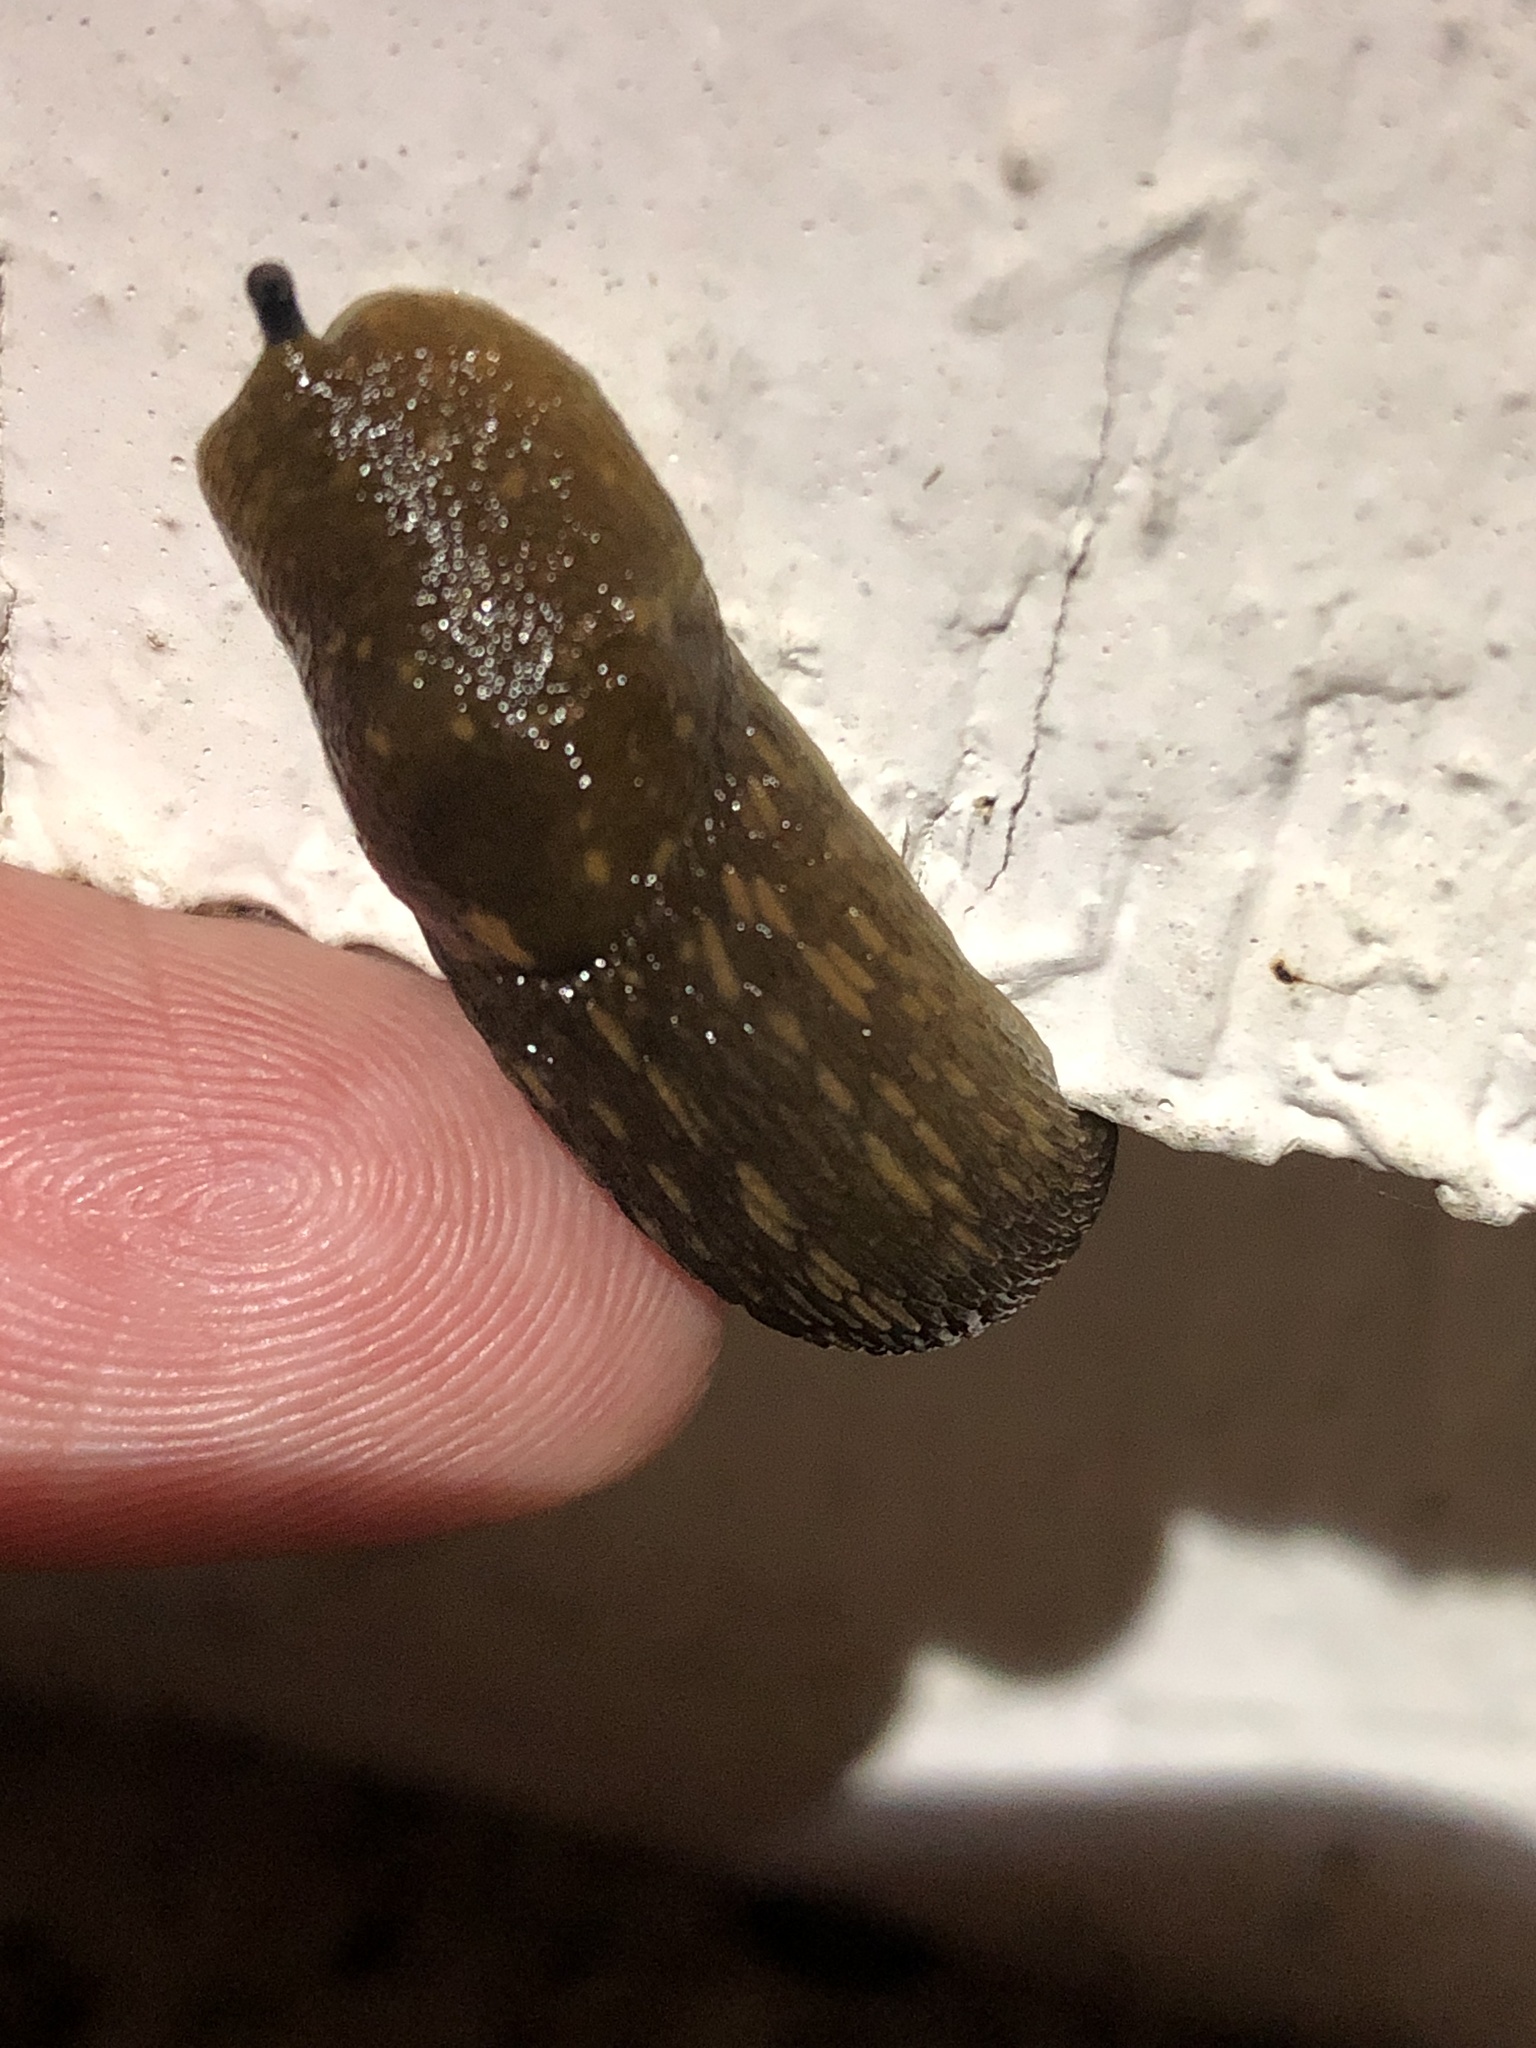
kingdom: Animalia
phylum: Mollusca
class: Gastropoda
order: Stylommatophora
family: Limacidae
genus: Limacus
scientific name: Limacus flavus
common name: Yellow gardenslug
